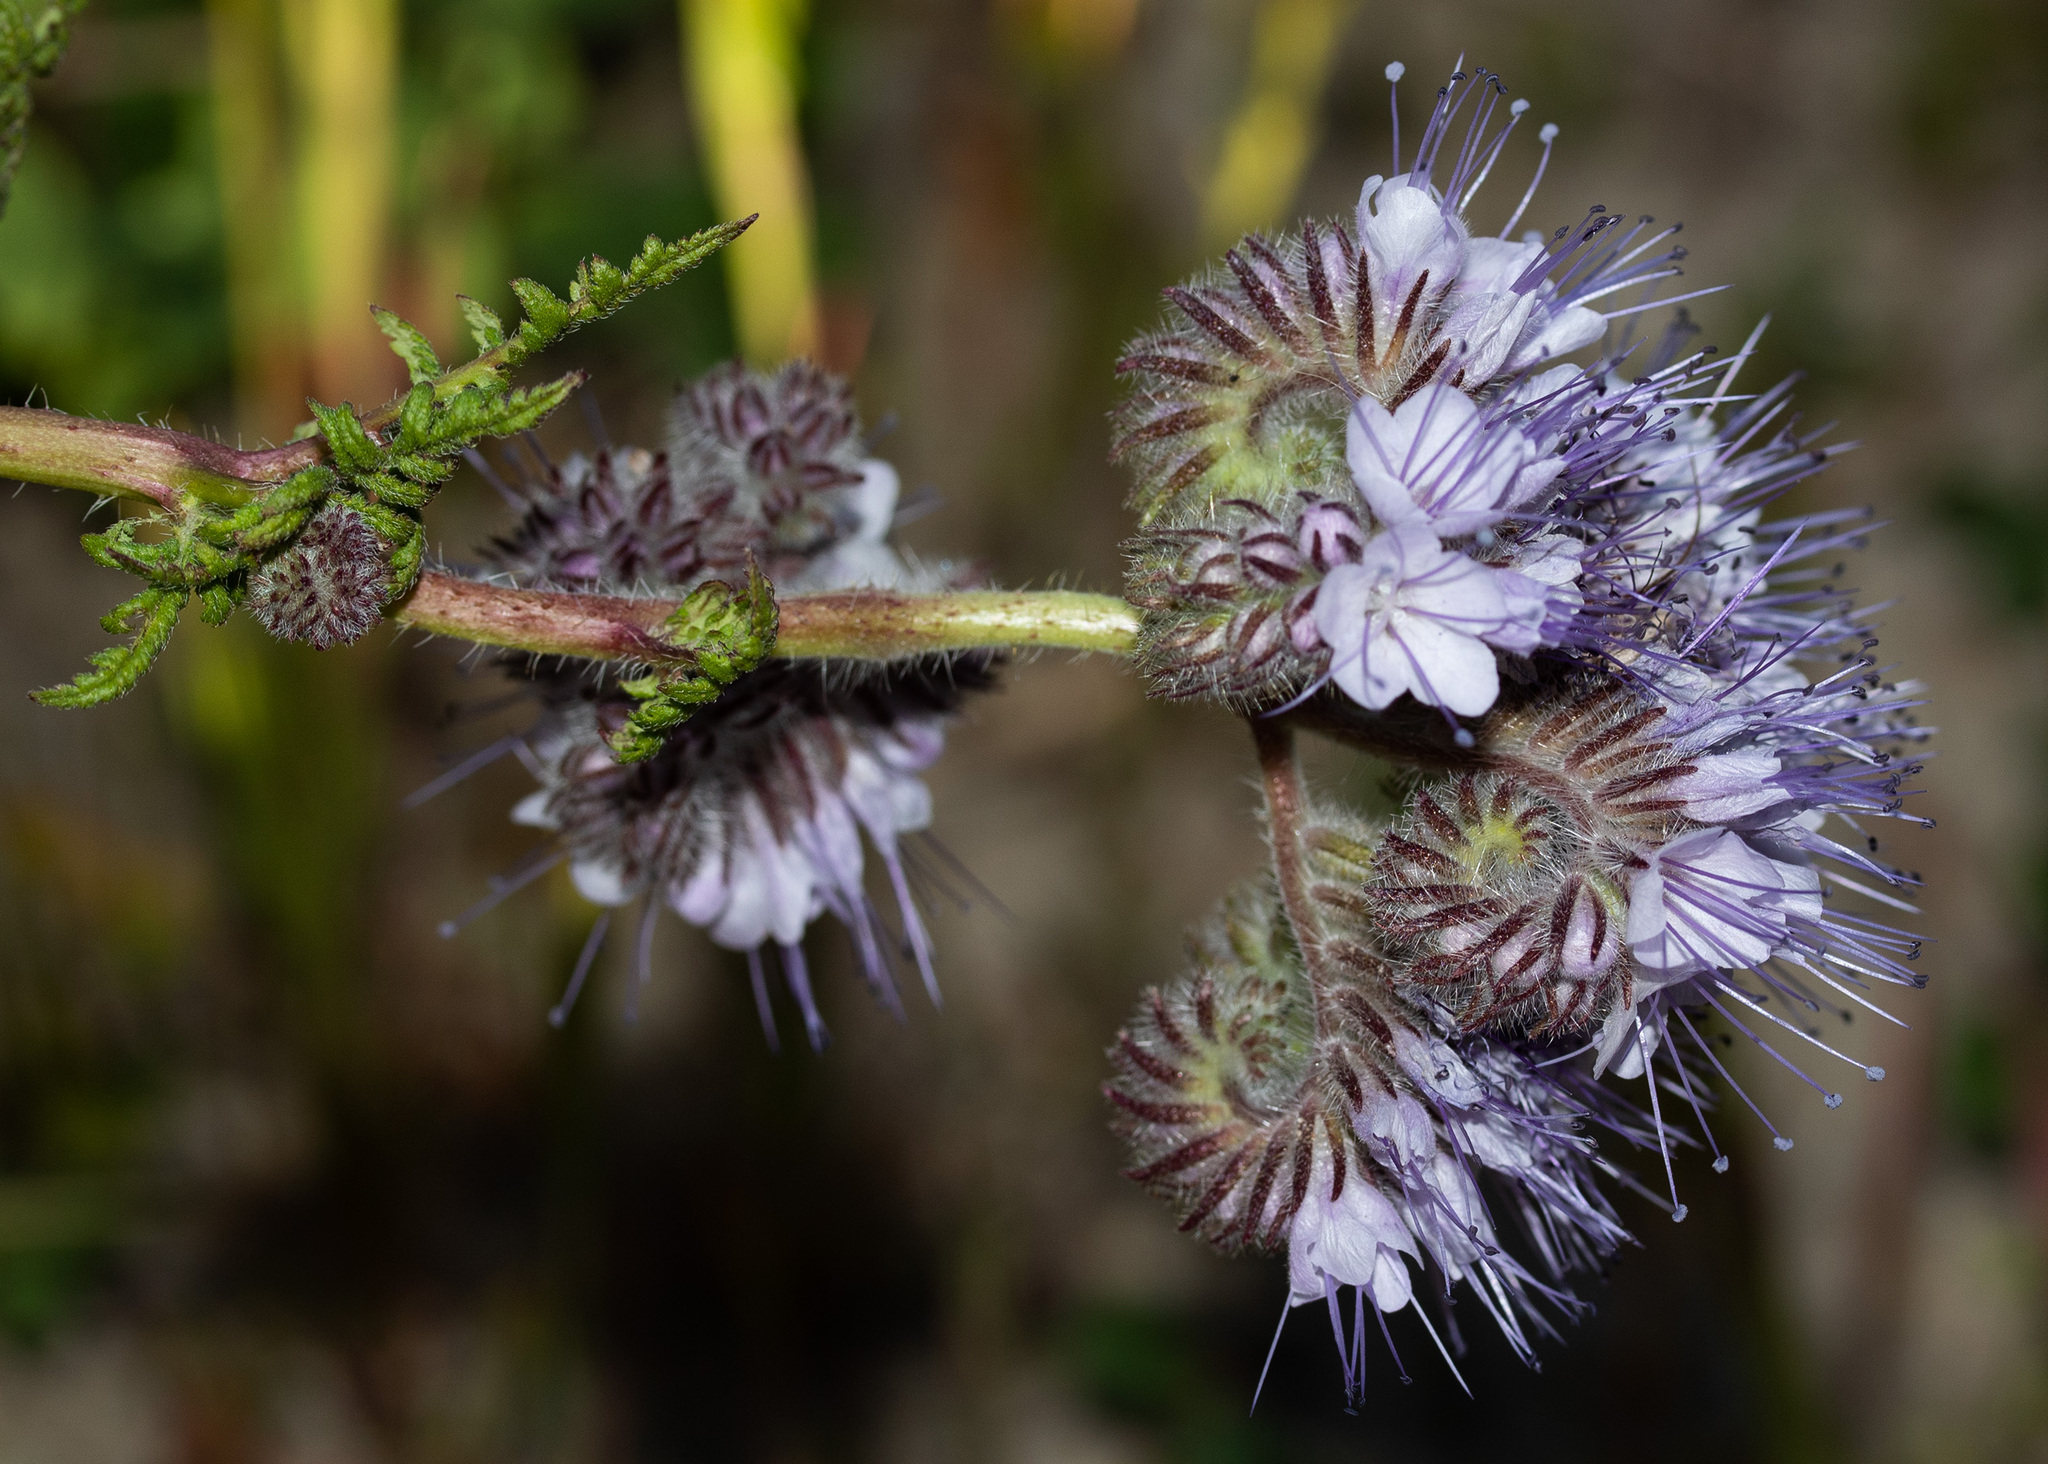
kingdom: Plantae
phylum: Tracheophyta
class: Magnoliopsida
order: Boraginales
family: Hydrophyllaceae
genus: Phacelia
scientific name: Phacelia tanacetifolia
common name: Phacelia
